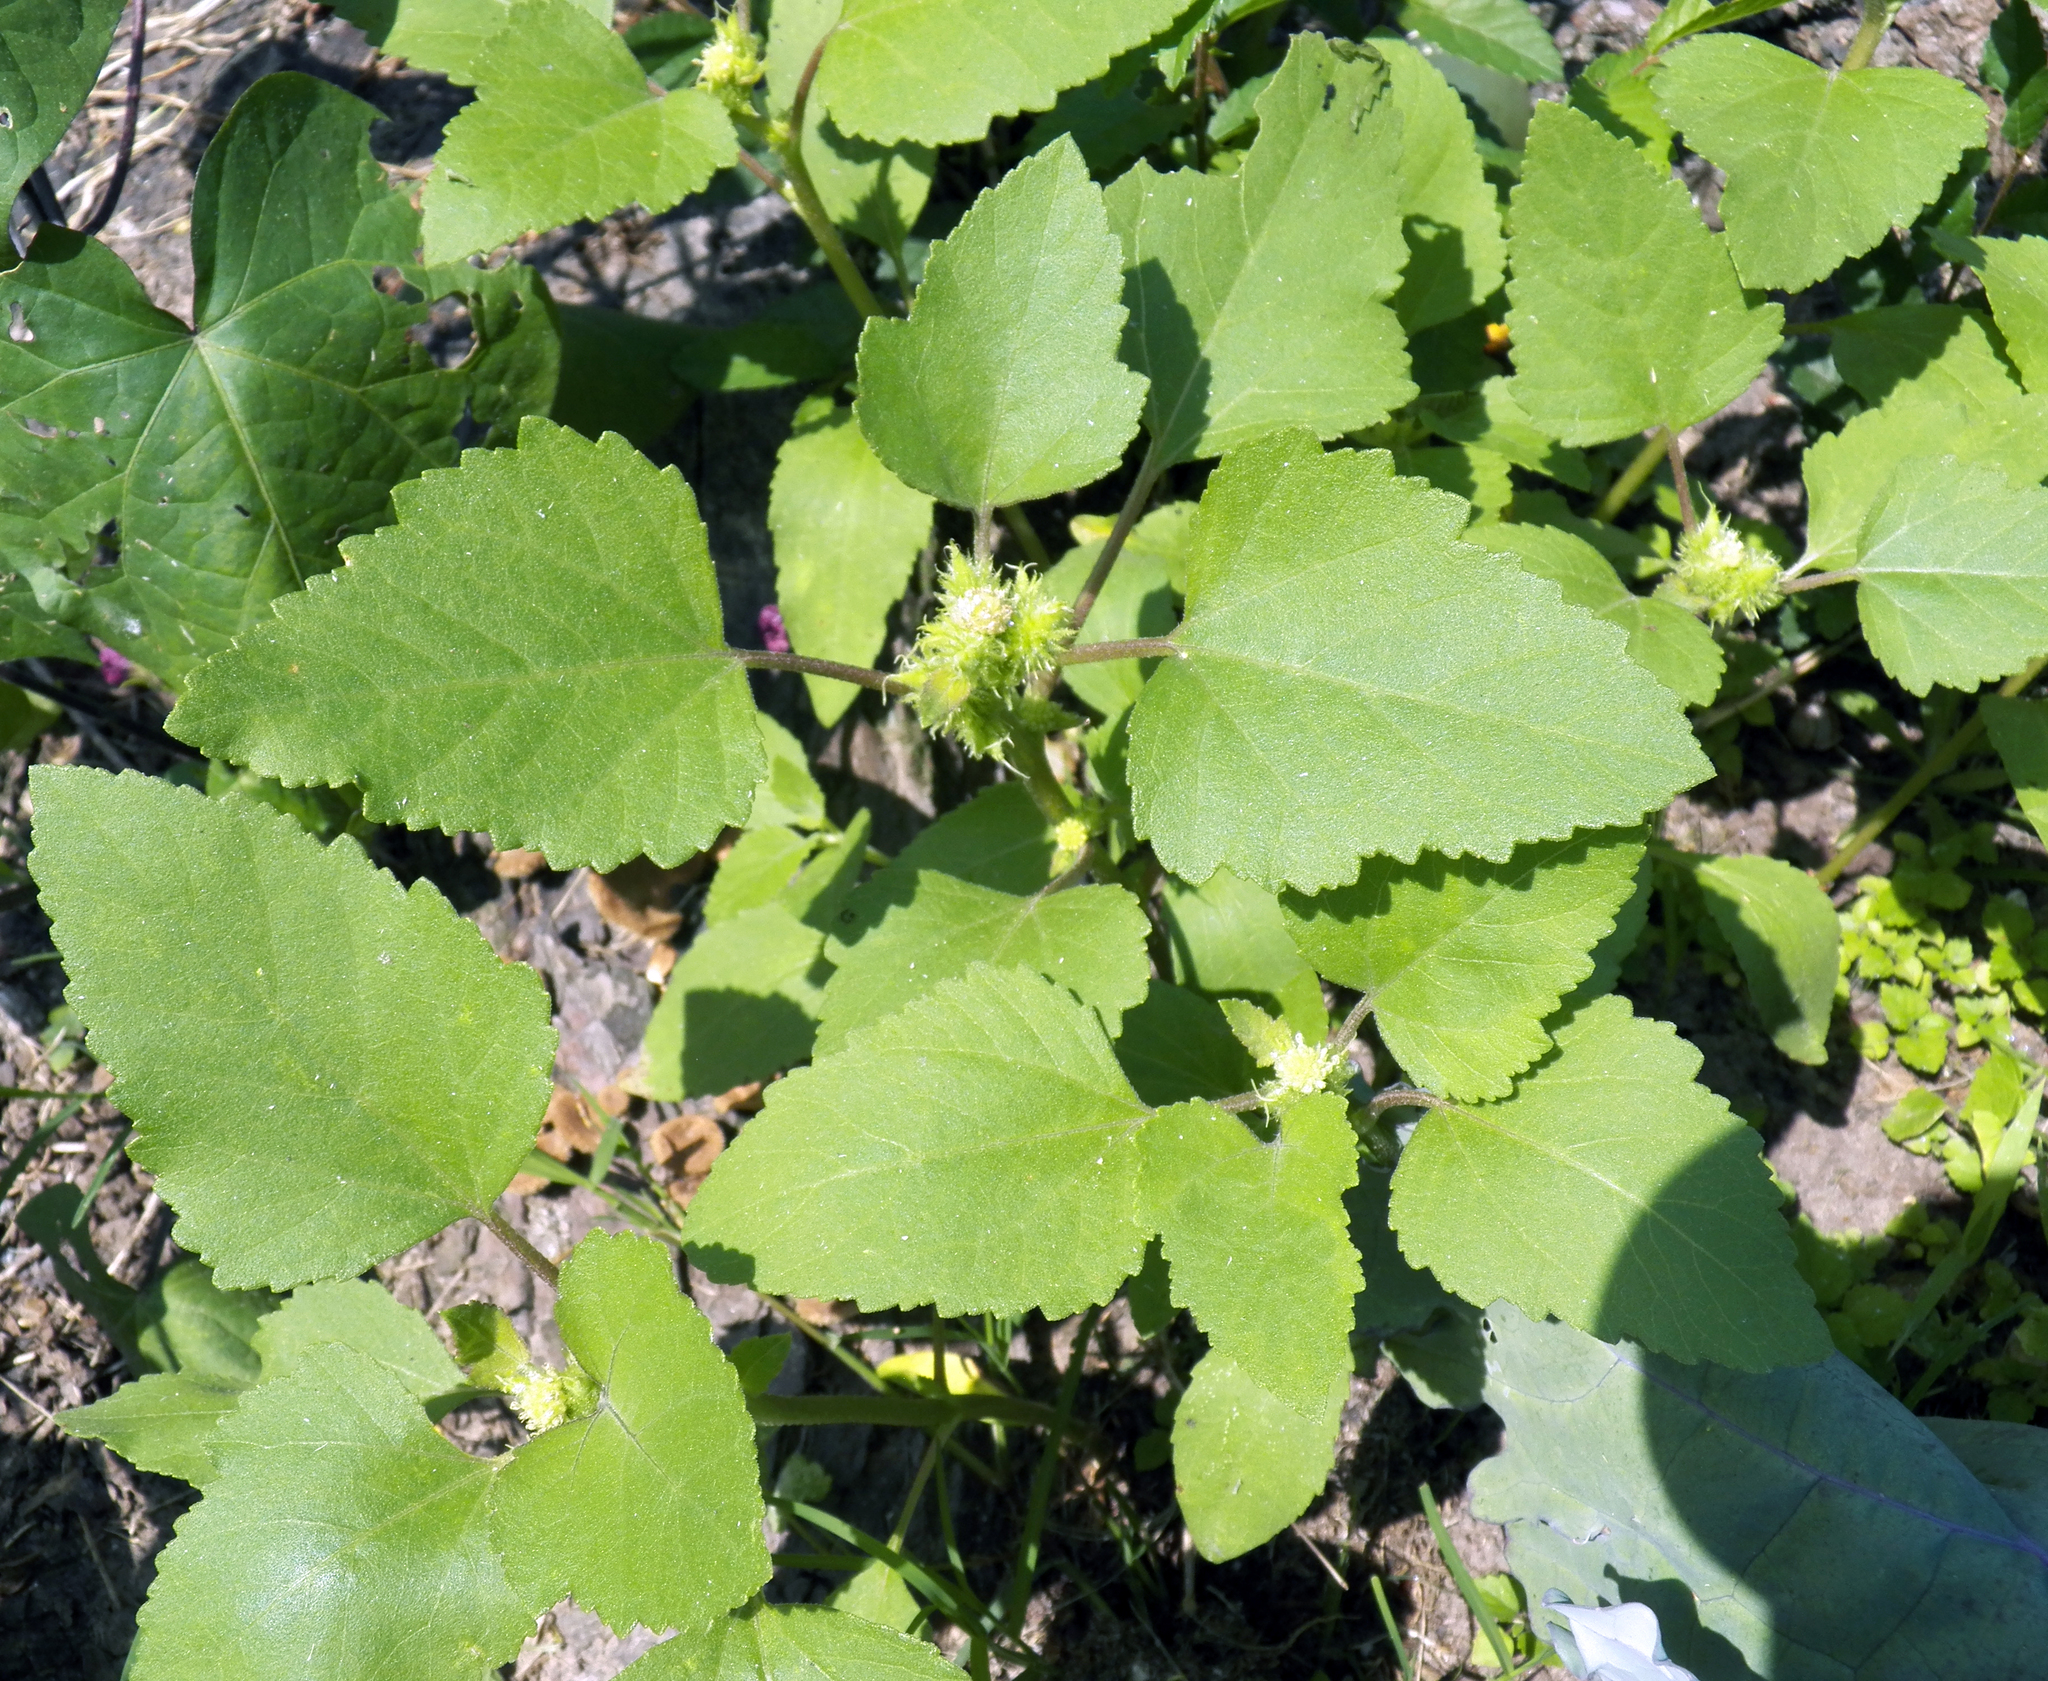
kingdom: Plantae
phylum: Tracheophyta
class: Magnoliopsida
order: Asterales
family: Asteraceae
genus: Xanthium
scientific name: Xanthium strumarium
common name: Rough cocklebur
